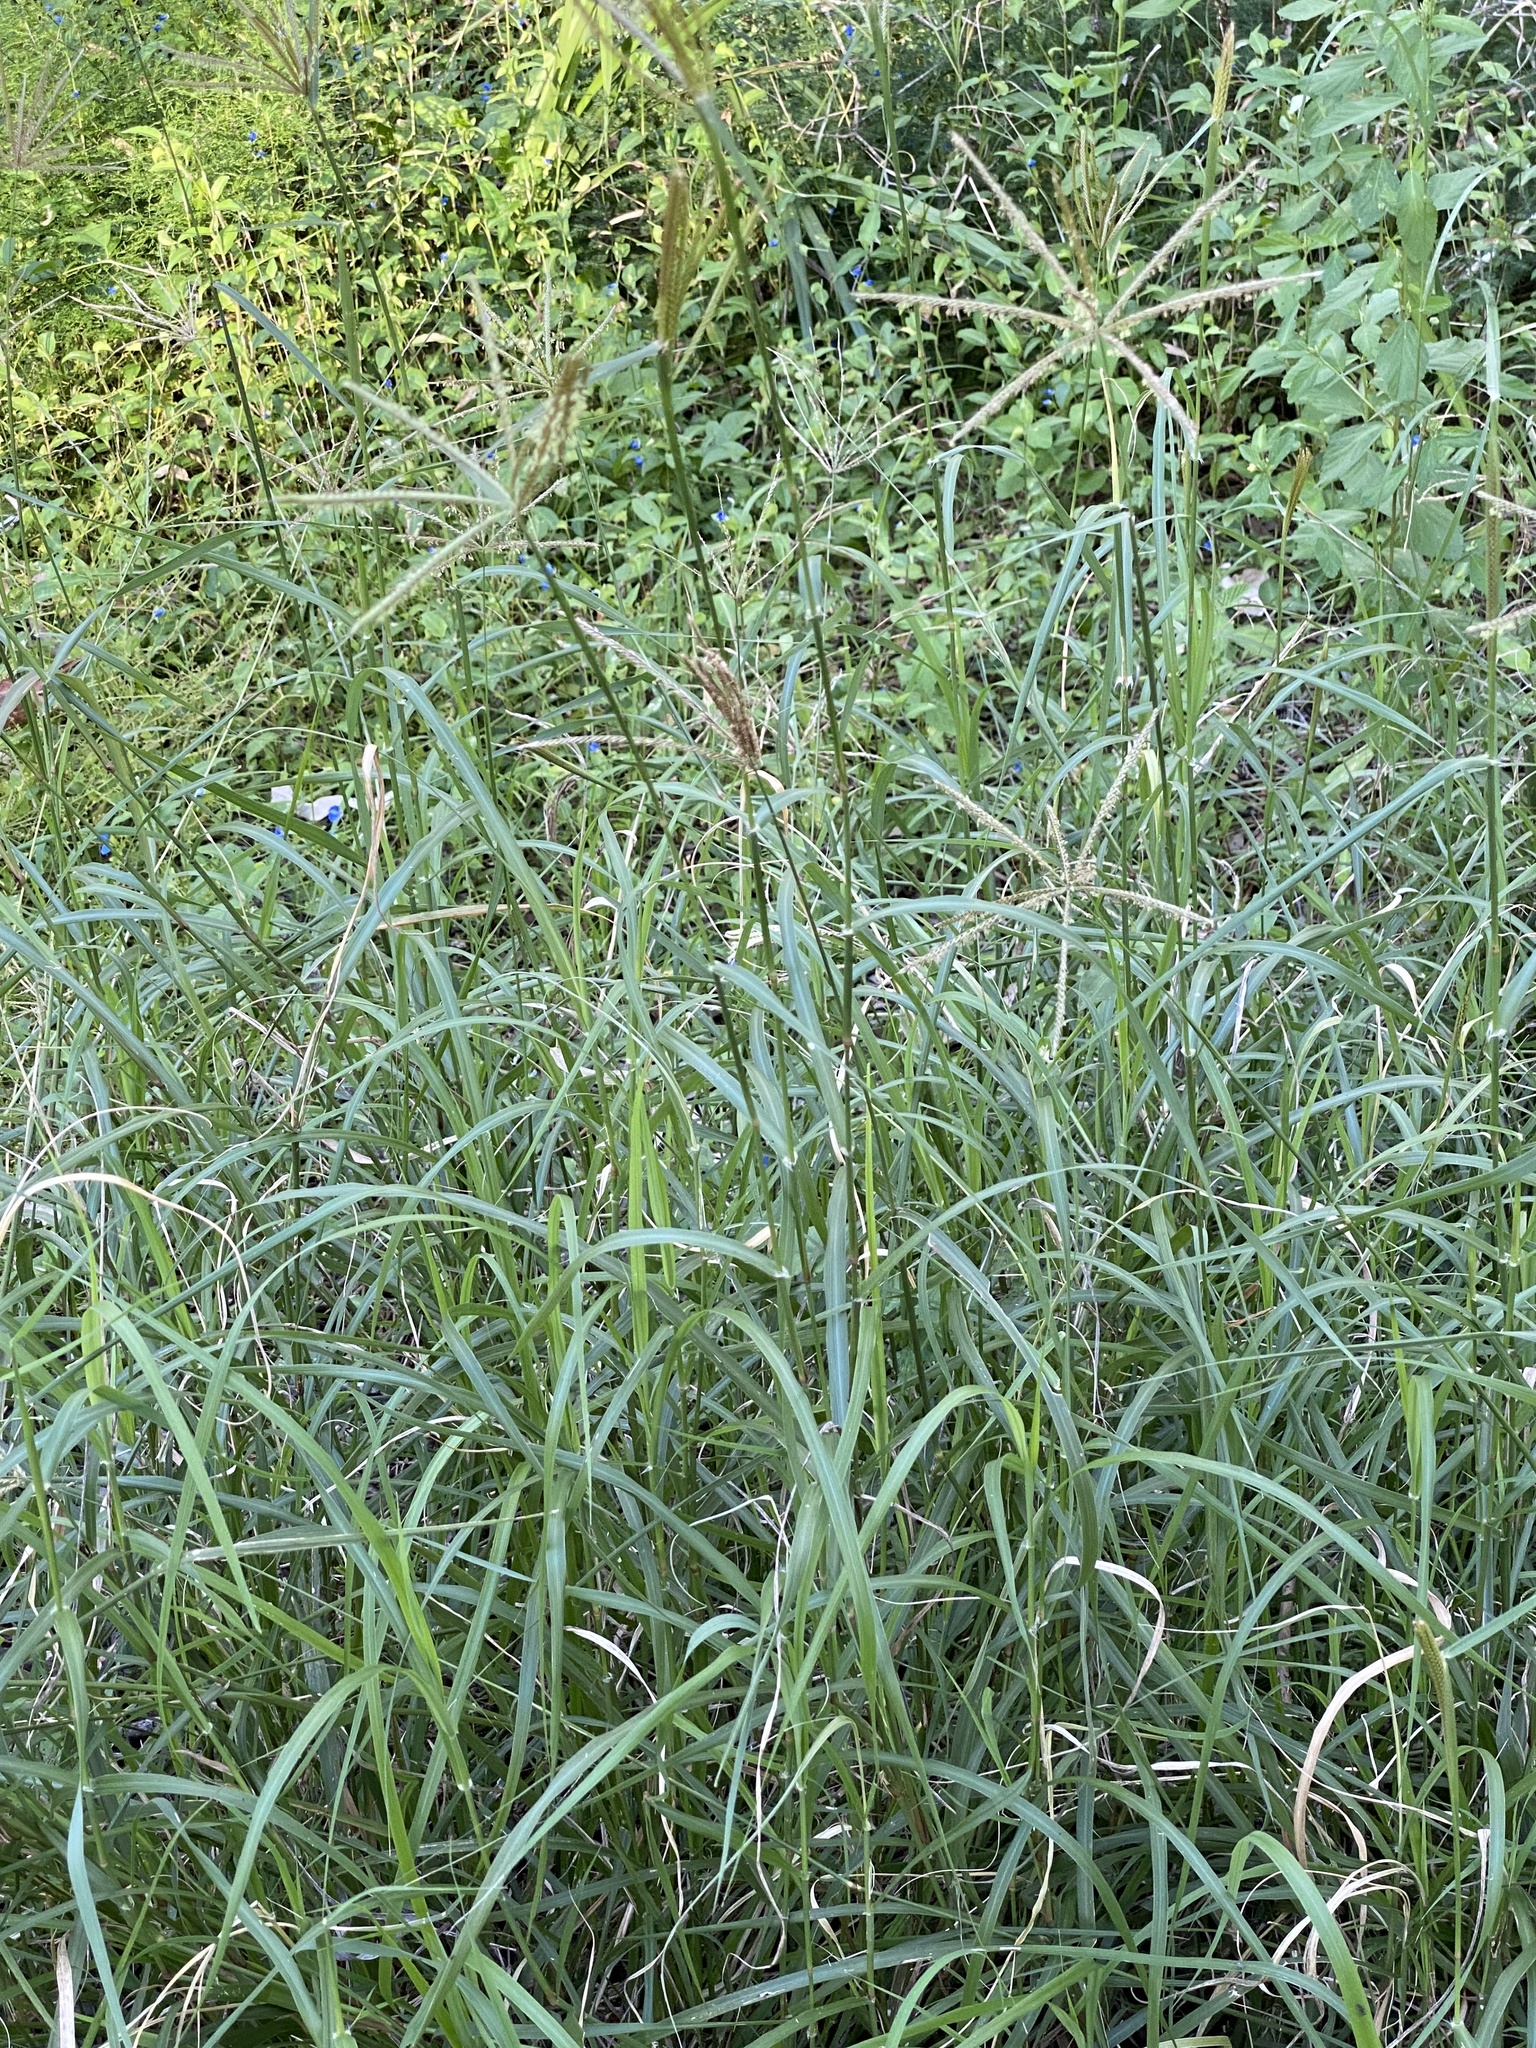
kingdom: Plantae
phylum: Tracheophyta
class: Liliopsida
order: Poales
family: Poaceae
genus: Chloris
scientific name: Chloris gayana
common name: Rhodes grass
